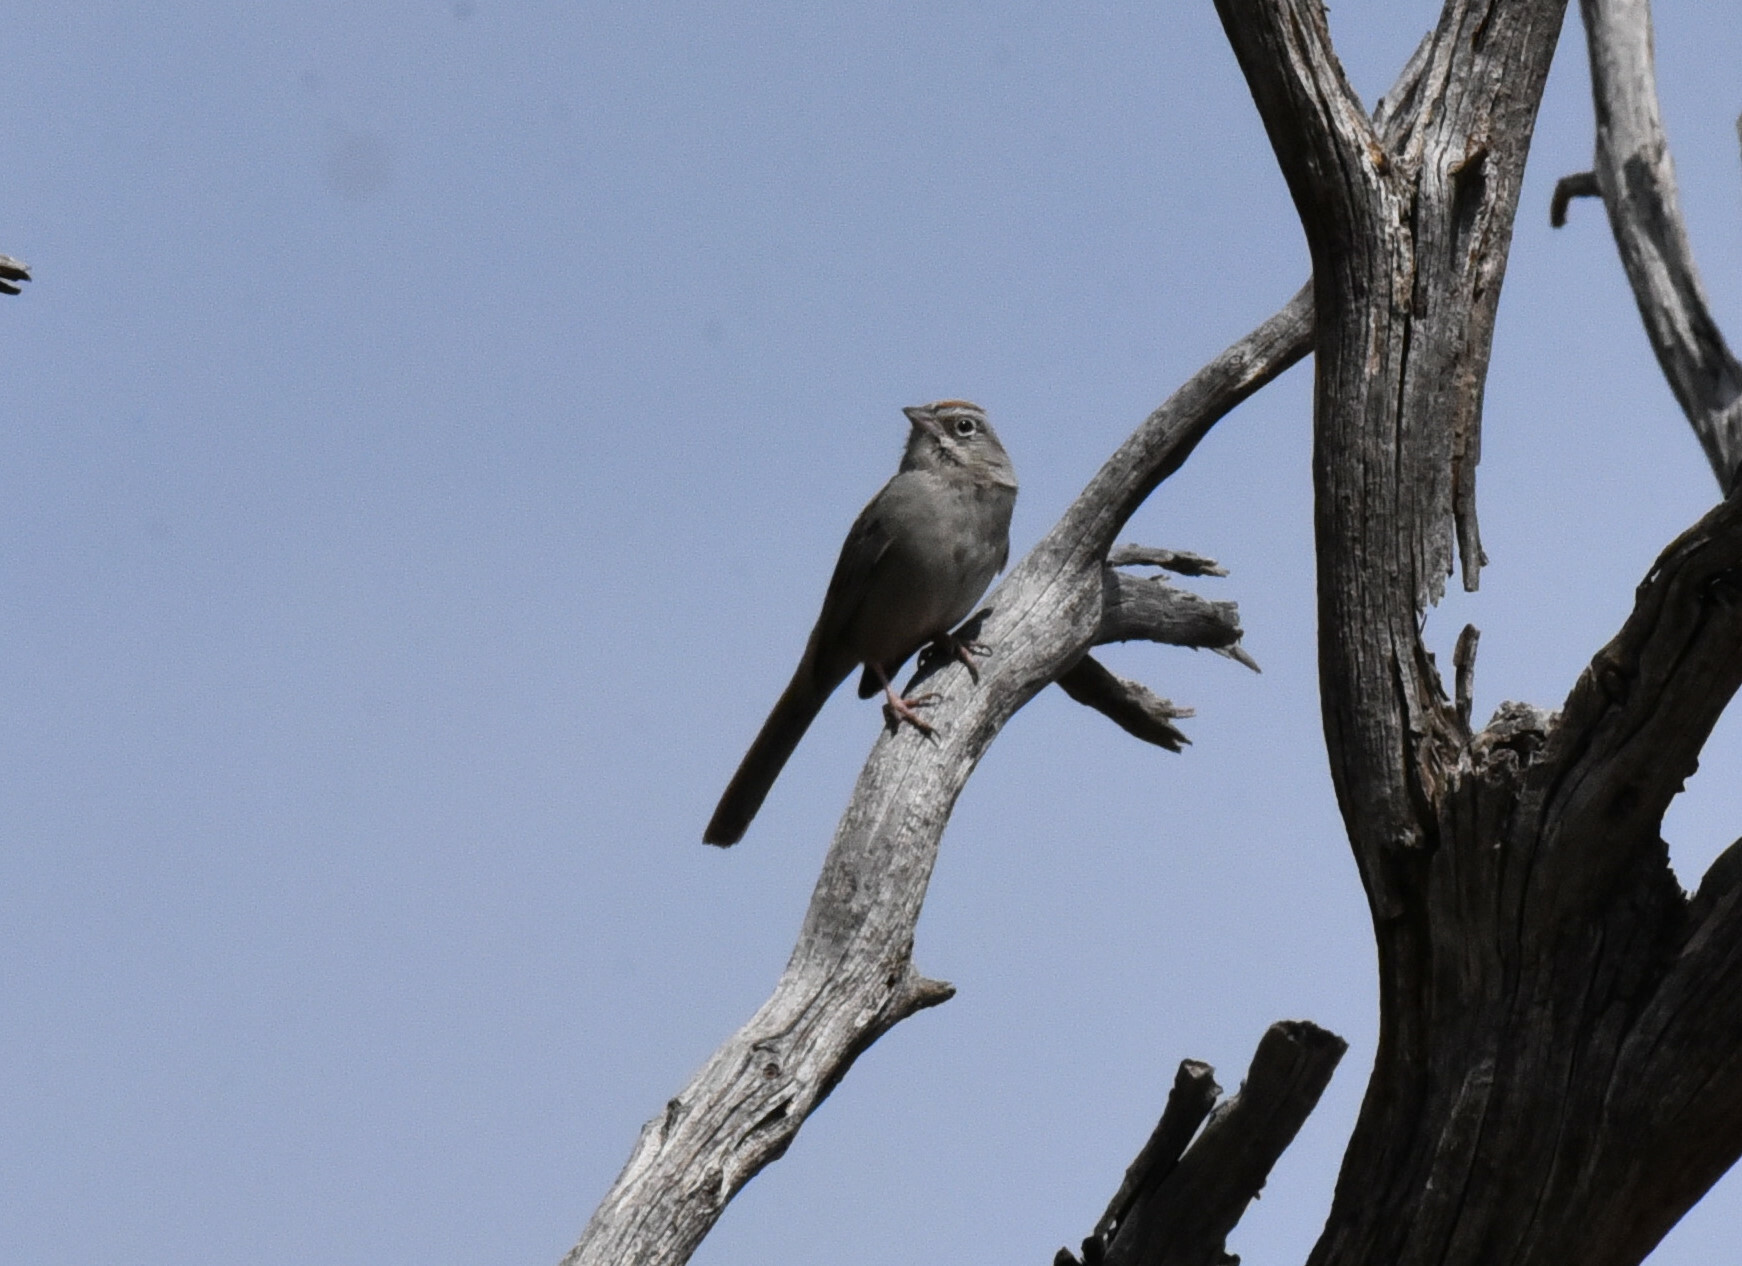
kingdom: Animalia
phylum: Chordata
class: Aves
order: Passeriformes
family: Passerellidae
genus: Aimophila
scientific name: Aimophila ruficeps
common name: Rufous-crowned sparrow
